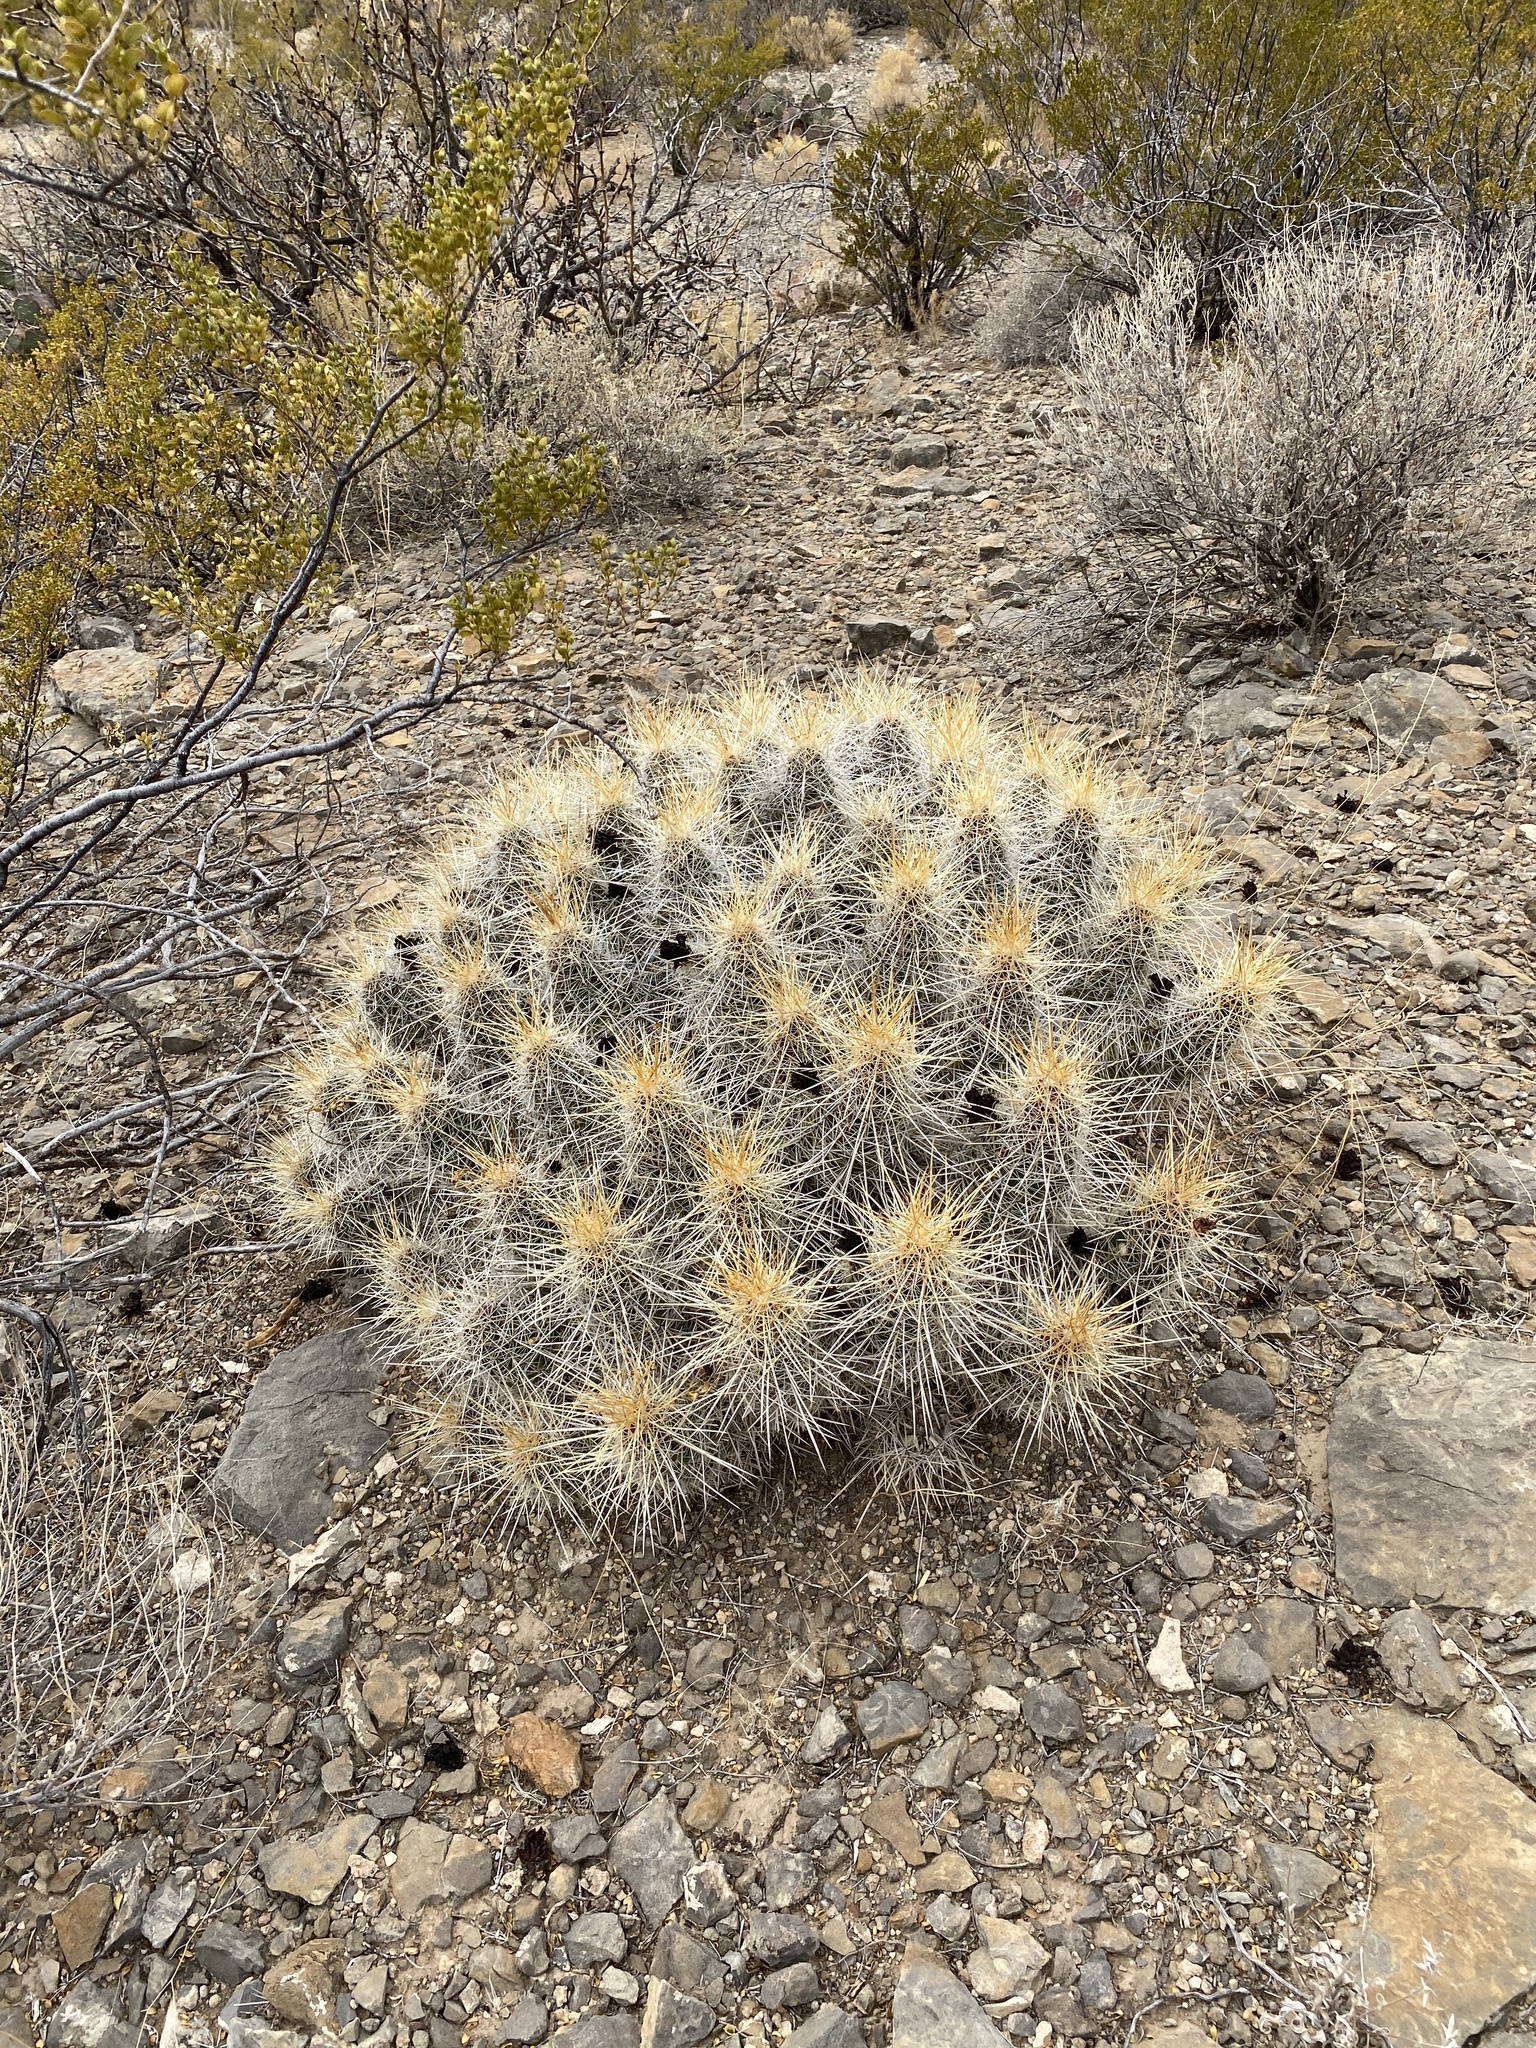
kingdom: Plantae
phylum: Tracheophyta
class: Magnoliopsida
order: Caryophyllales
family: Cactaceae
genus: Echinocereus
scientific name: Echinocereus stramineus
